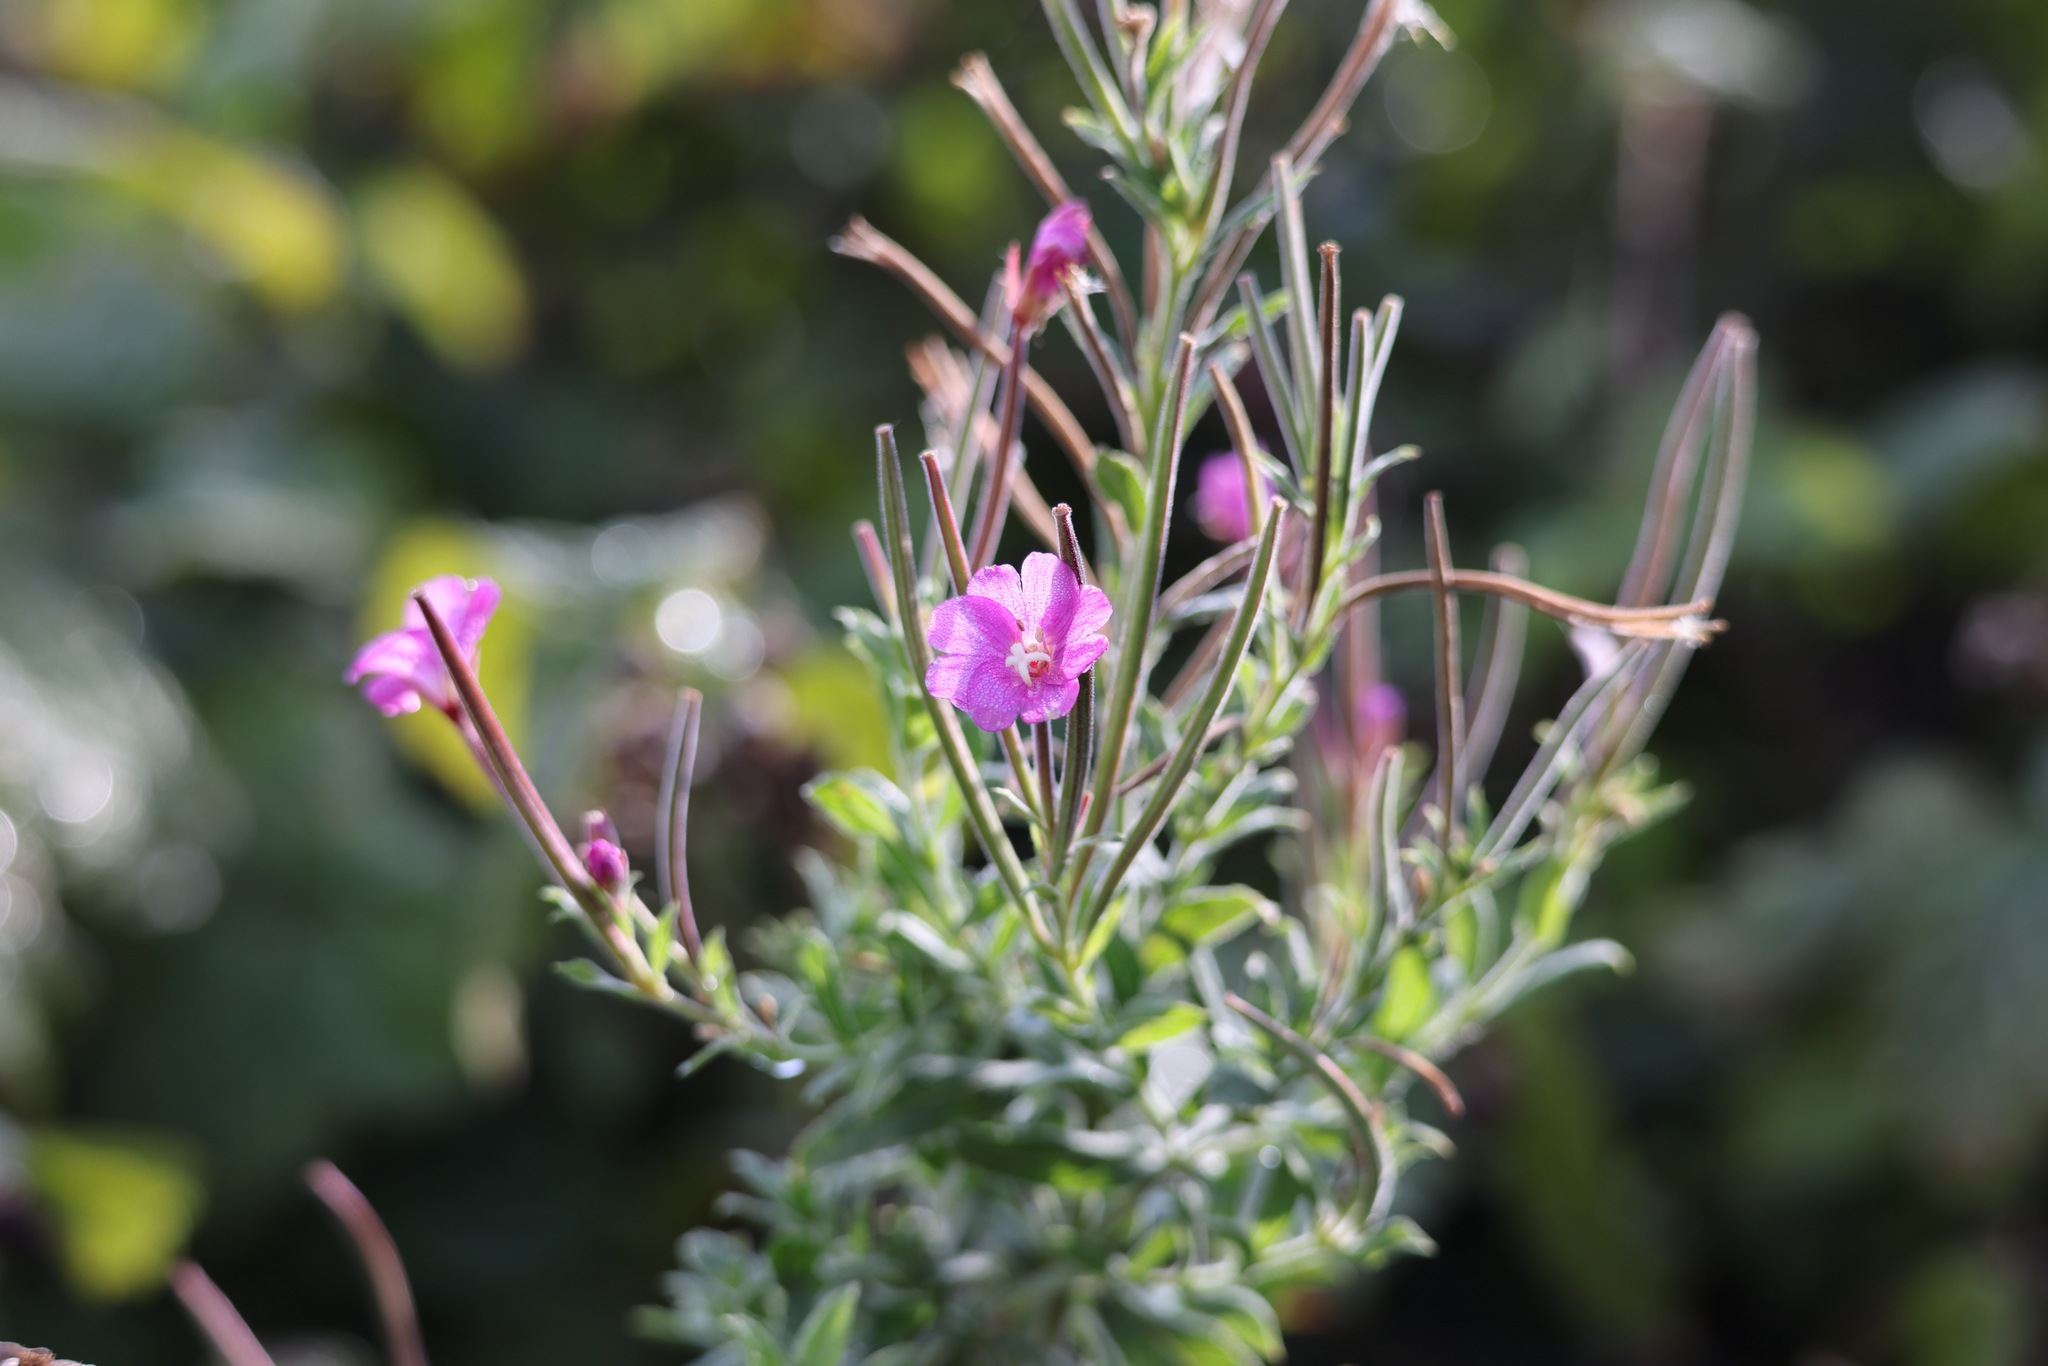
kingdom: Plantae
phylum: Tracheophyta
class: Magnoliopsida
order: Myrtales
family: Onagraceae
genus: Epilobium
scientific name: Epilobium hirsutum
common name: Great willowherb
